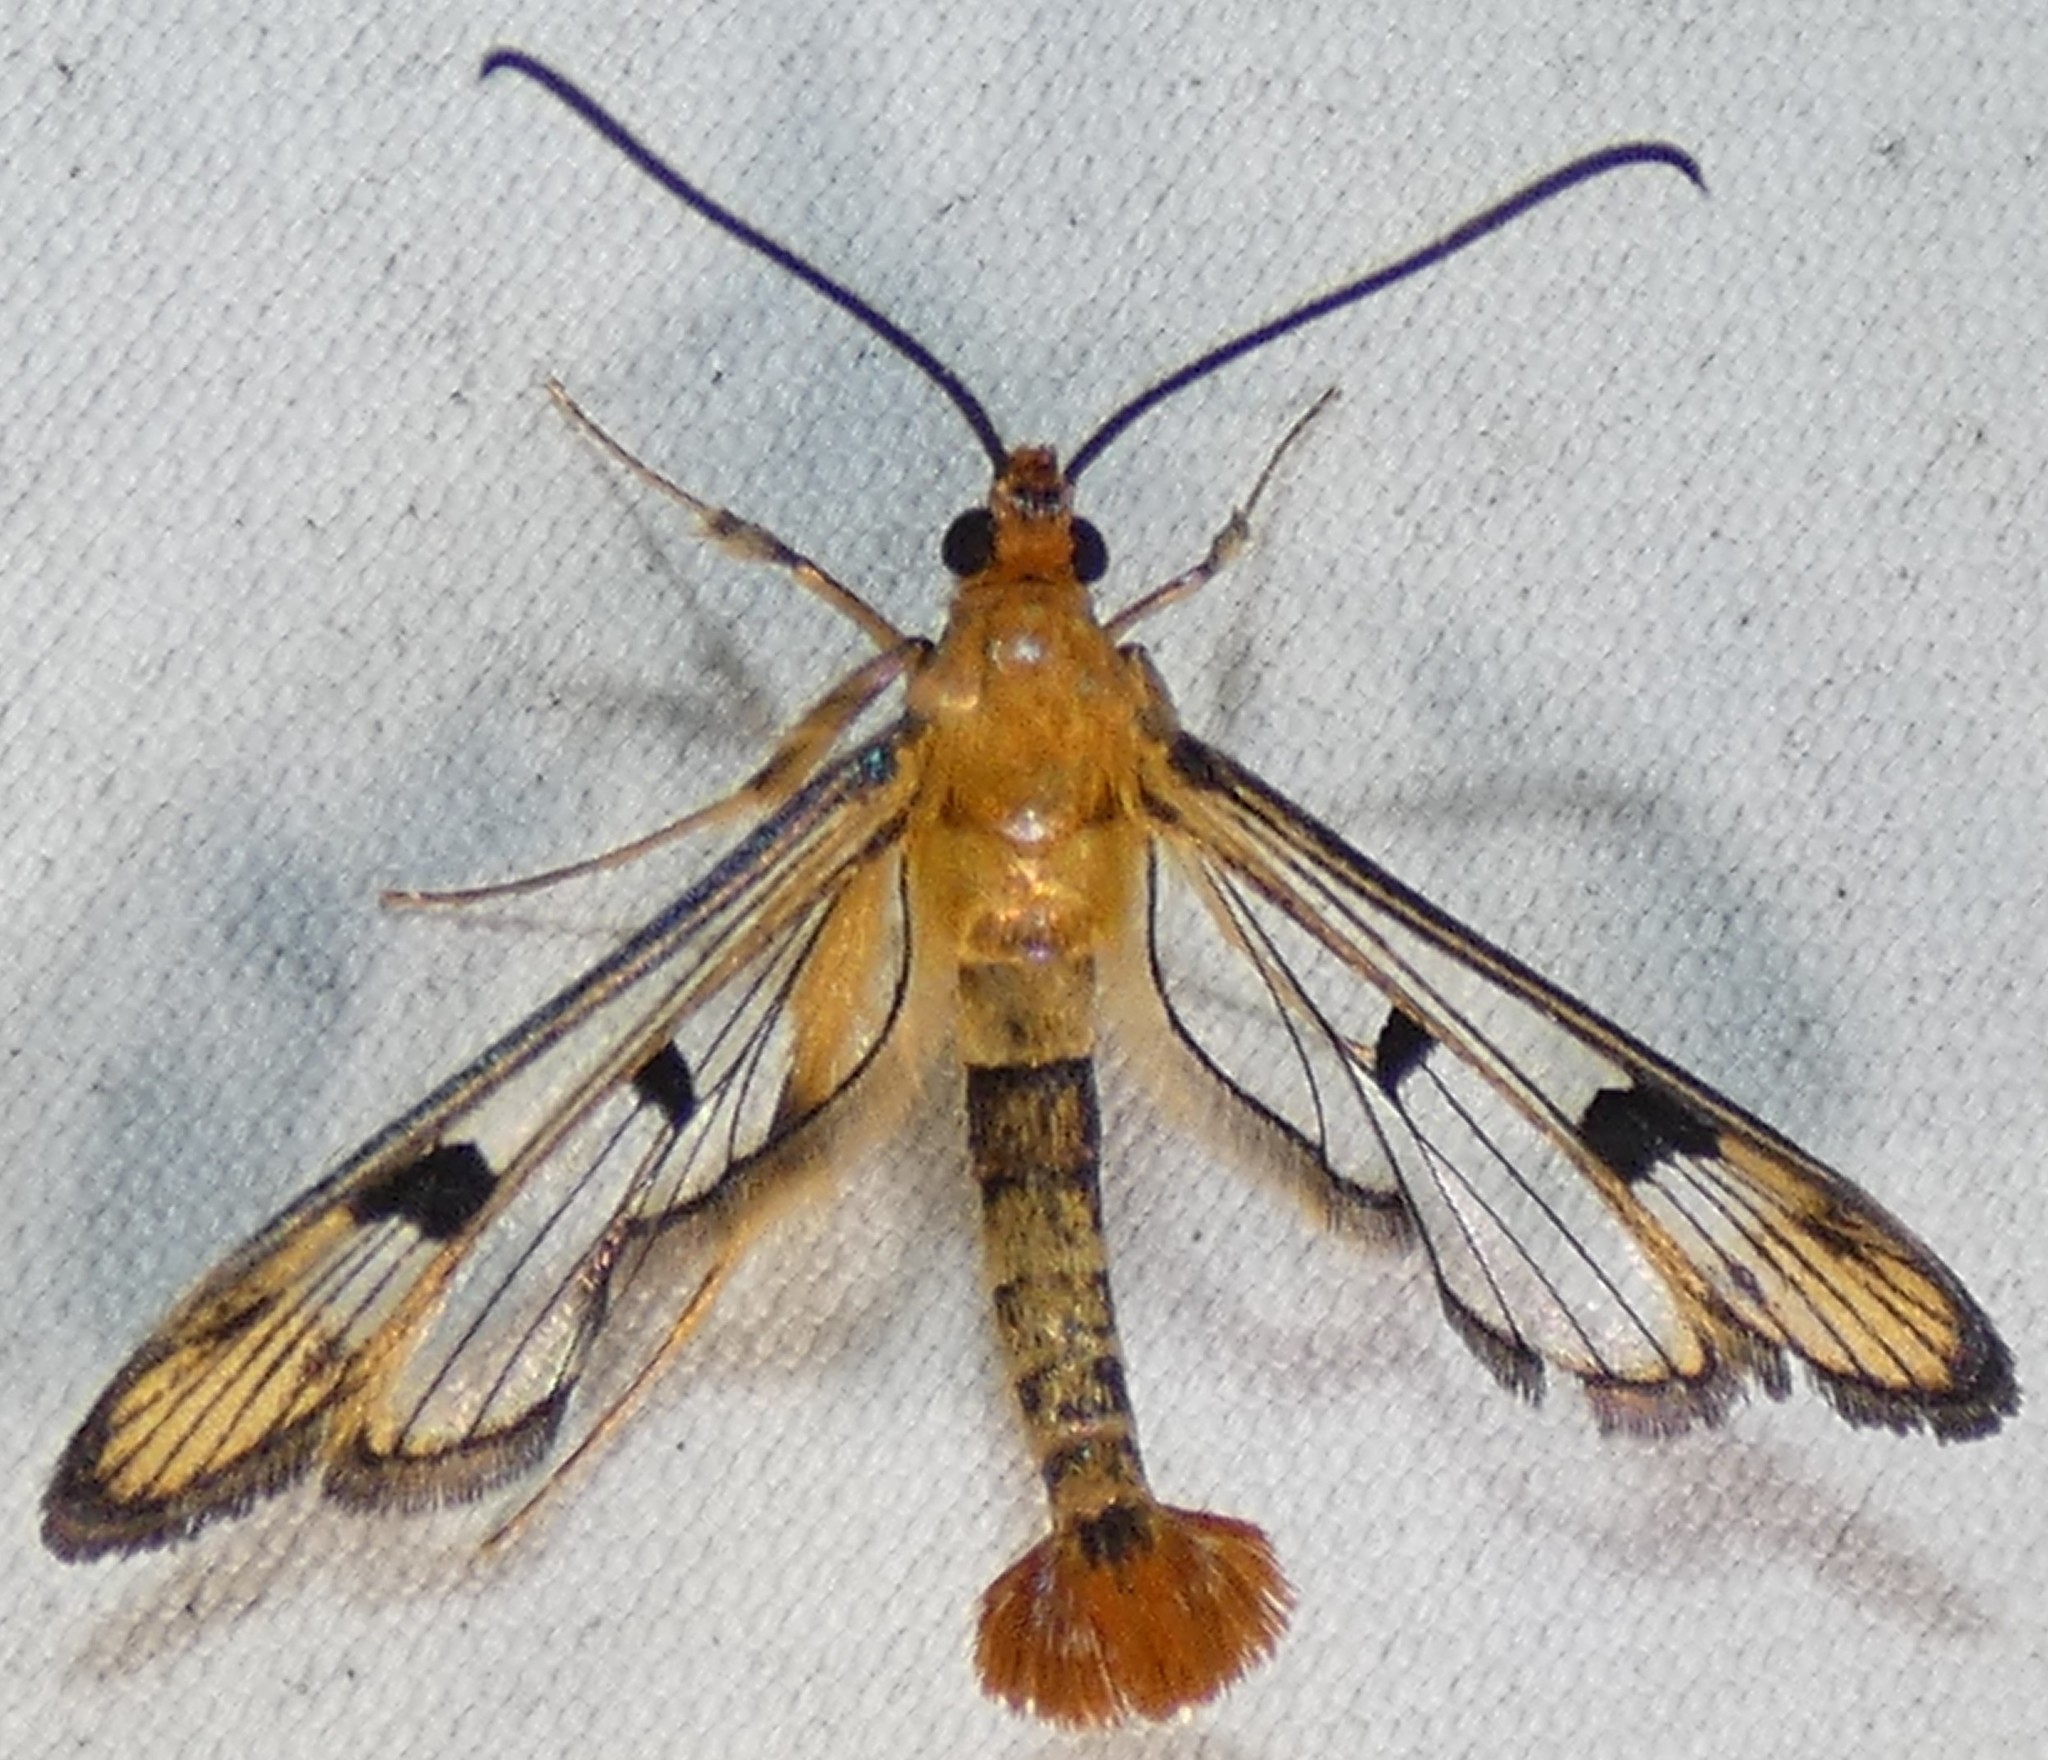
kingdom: Animalia
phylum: Arthropoda
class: Insecta
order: Lepidoptera
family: Sesiidae
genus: Synanthedon
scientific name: Synanthedon acerni
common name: Maple callus borer moth
